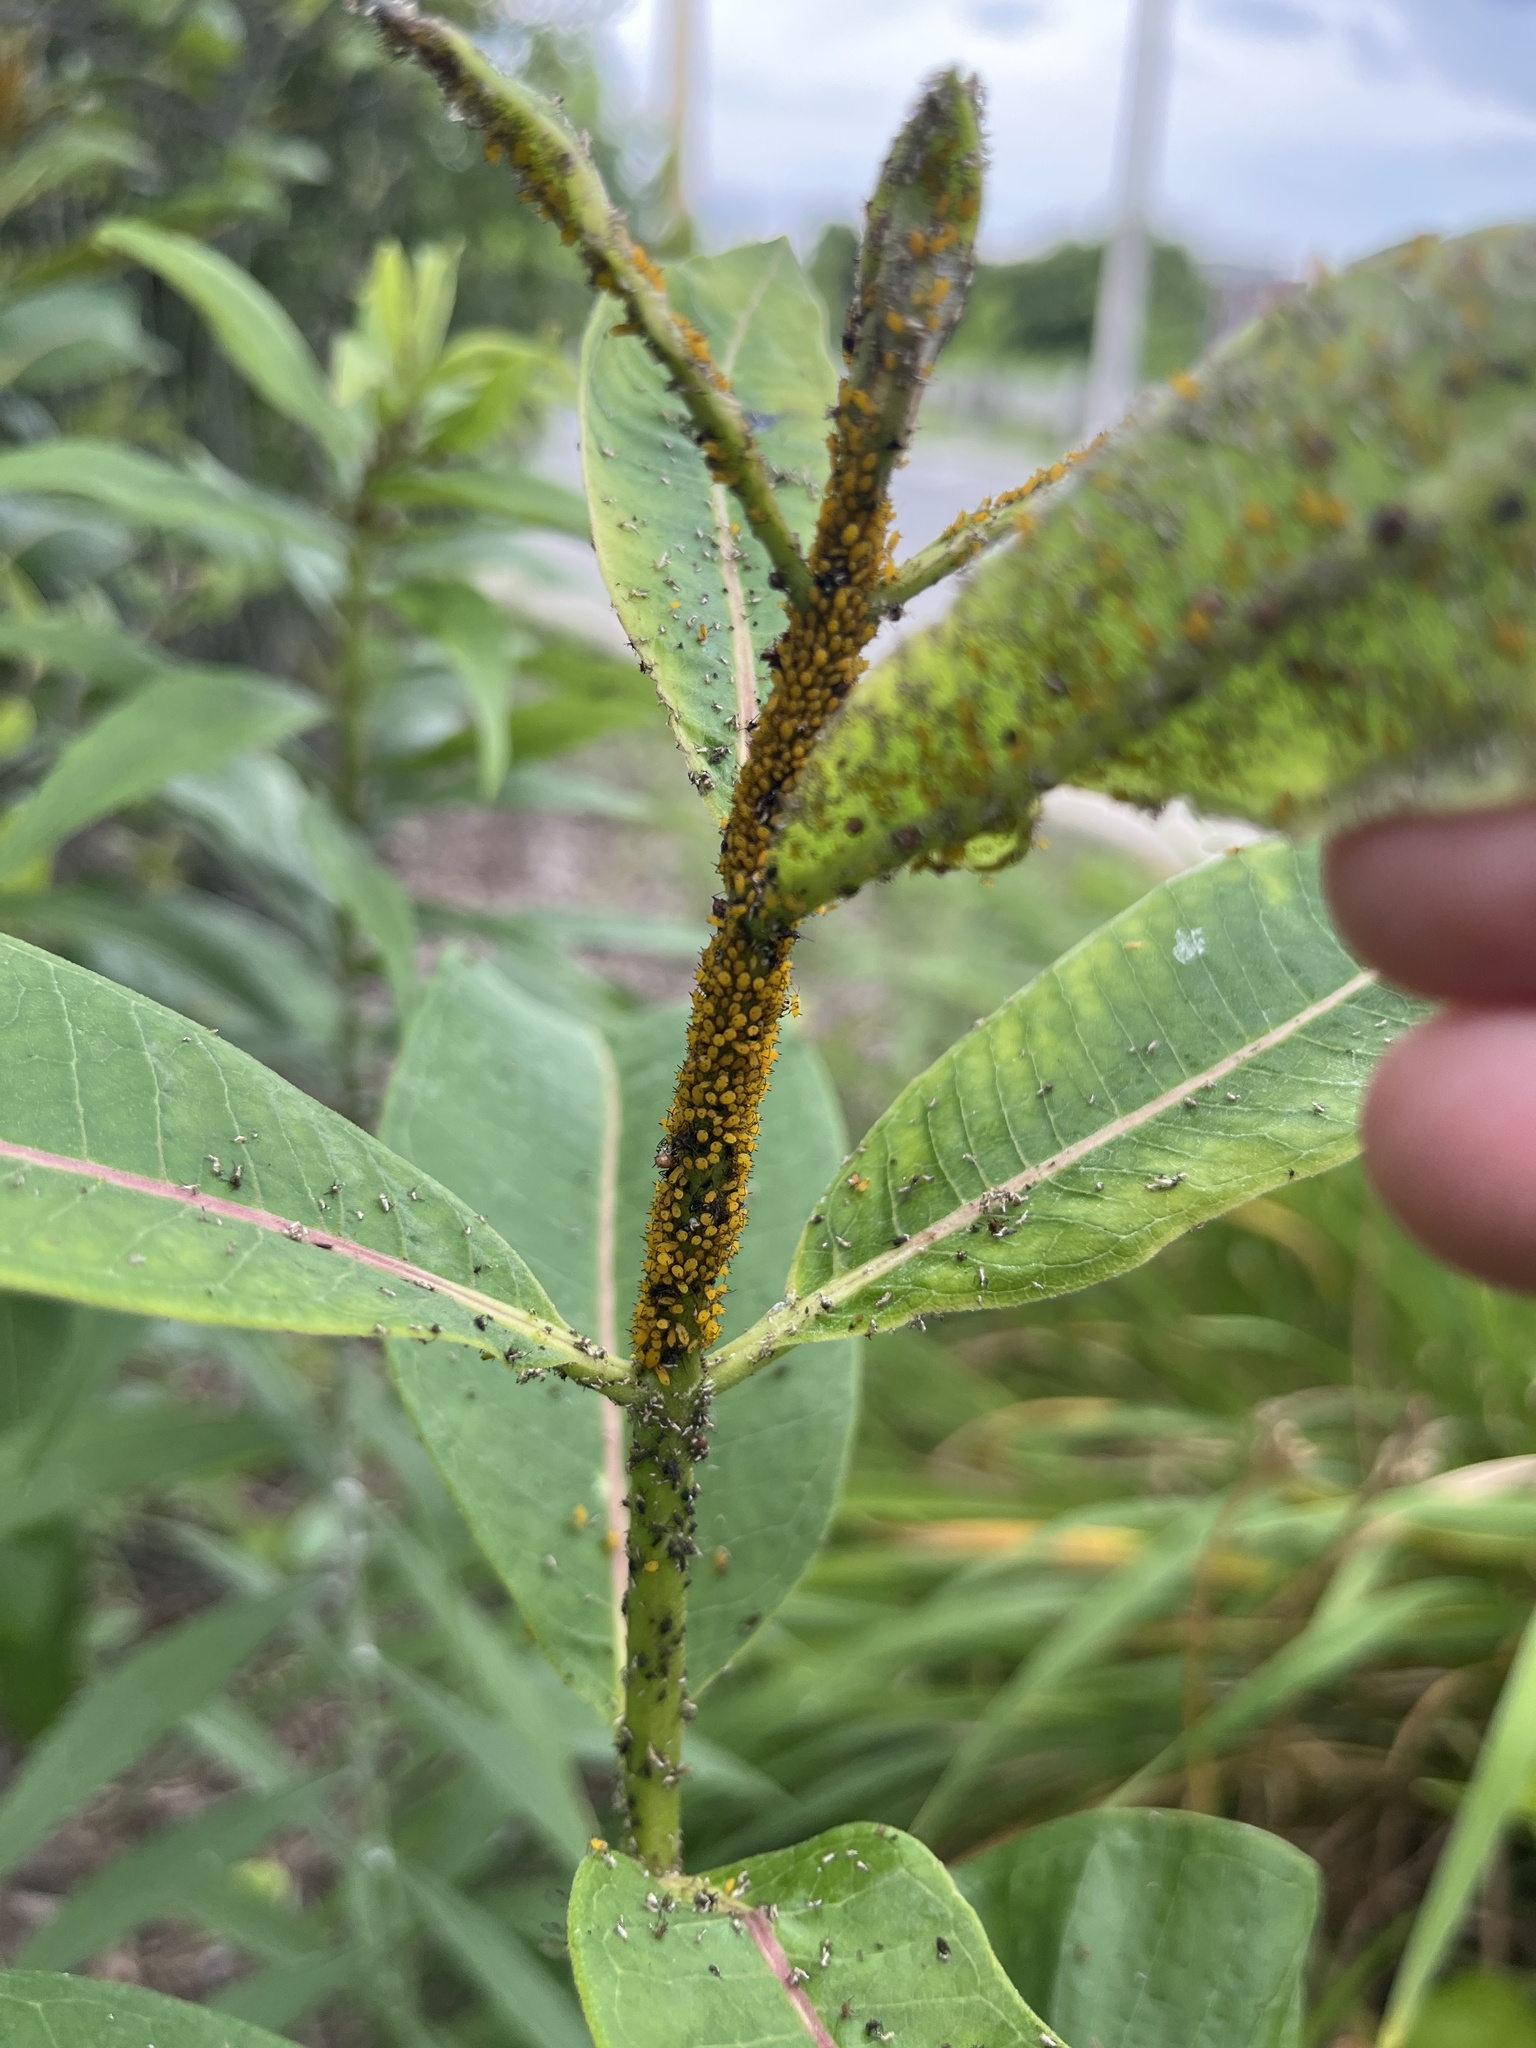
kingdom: Animalia
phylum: Arthropoda
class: Insecta
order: Hemiptera
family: Aphididae
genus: Aphis
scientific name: Aphis nerii
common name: Oleander aphid
